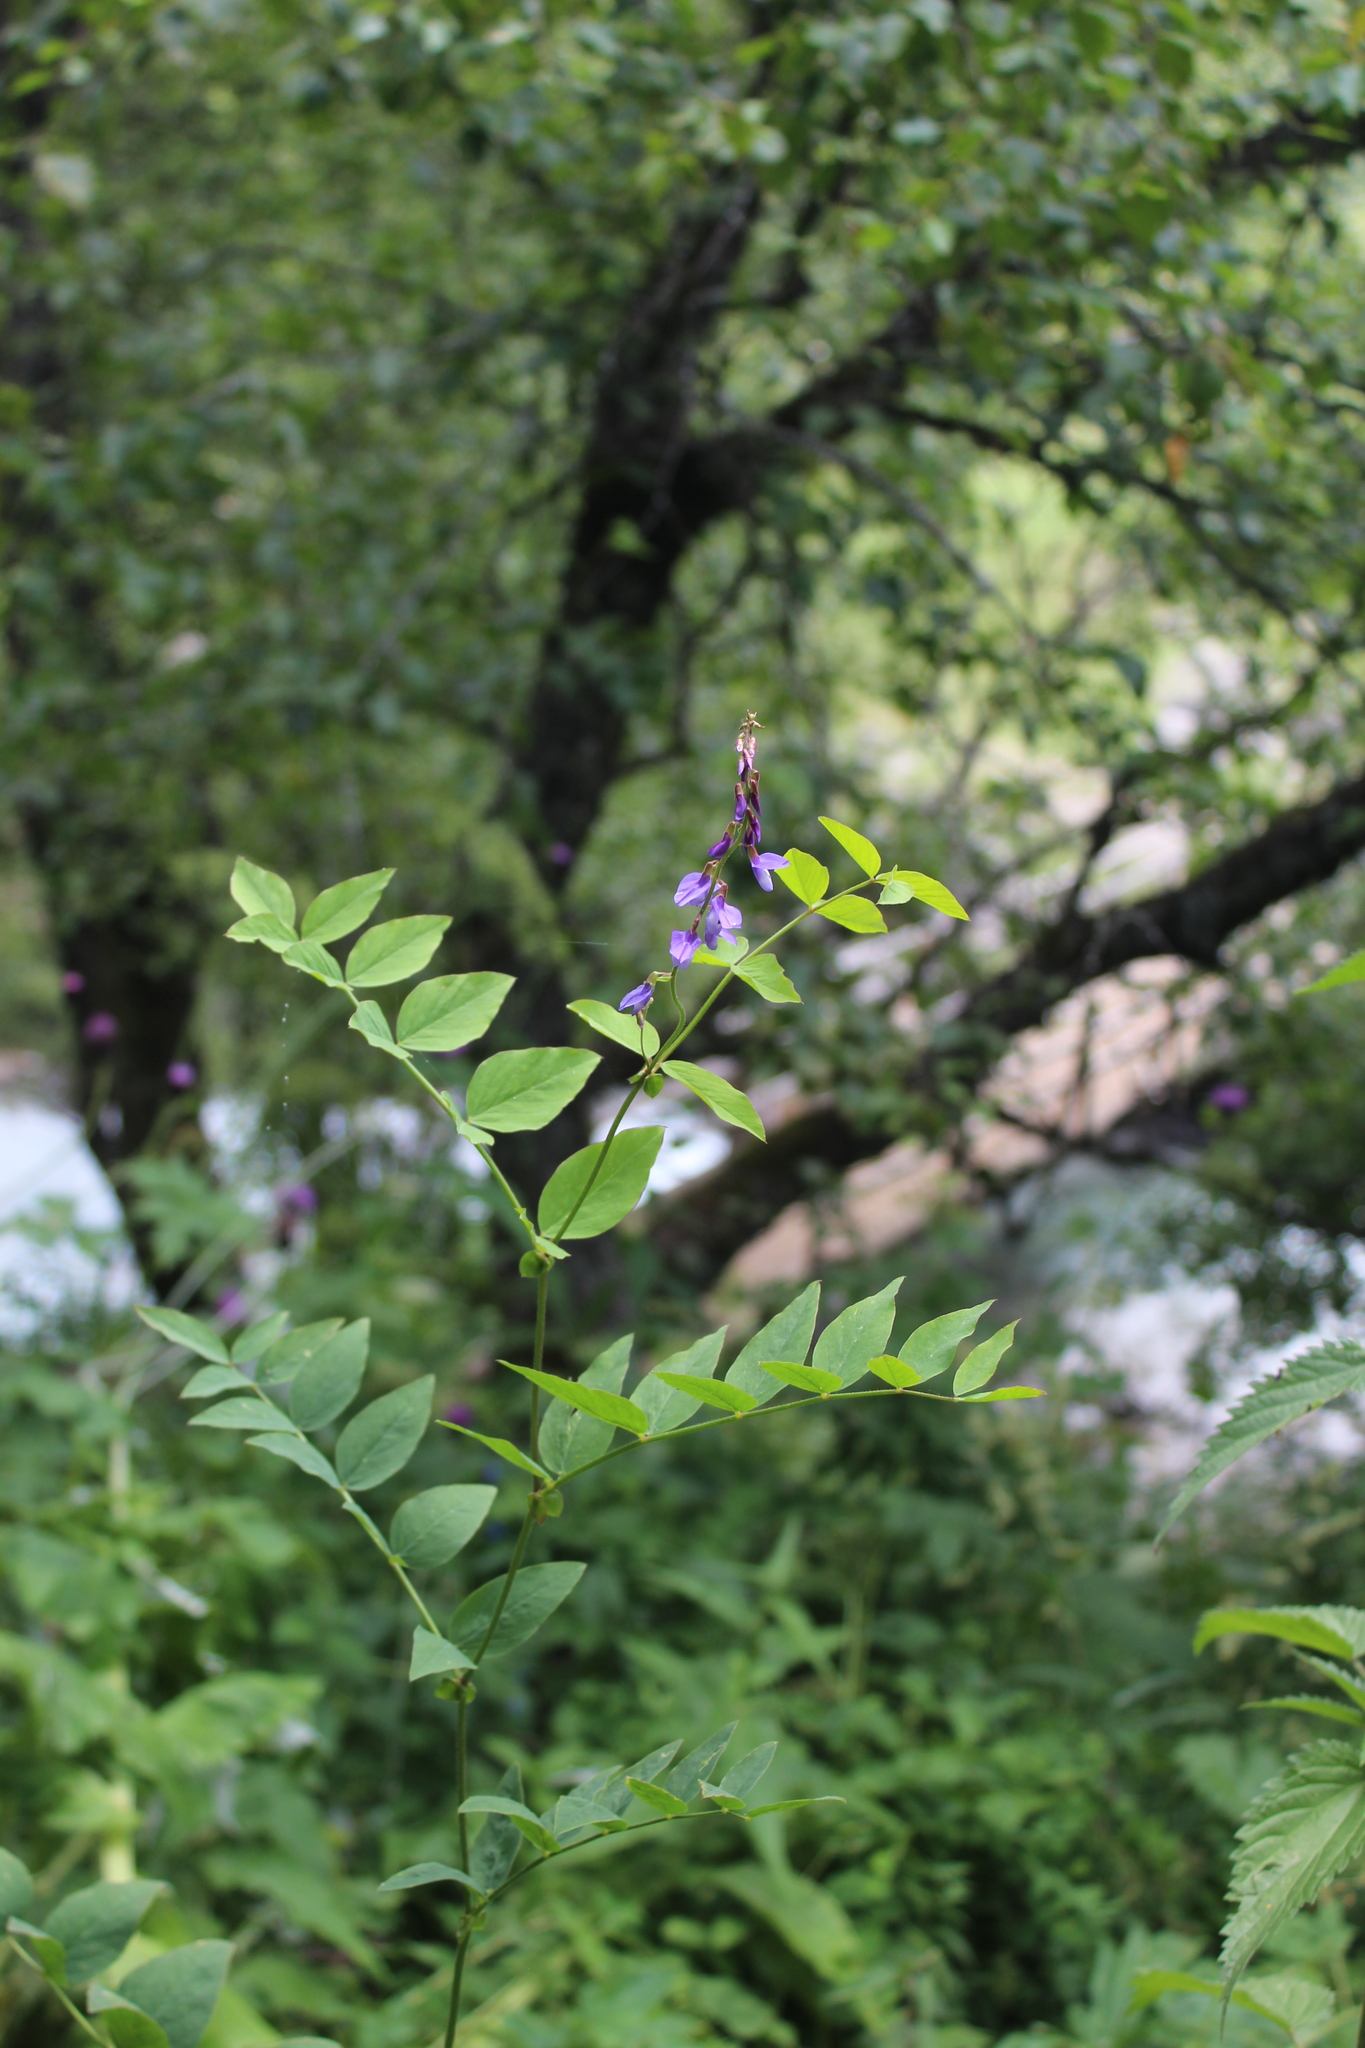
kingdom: Plantae
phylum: Tracheophyta
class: Magnoliopsida
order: Fabales
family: Fabaceae
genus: Galega
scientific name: Galega orientalis
